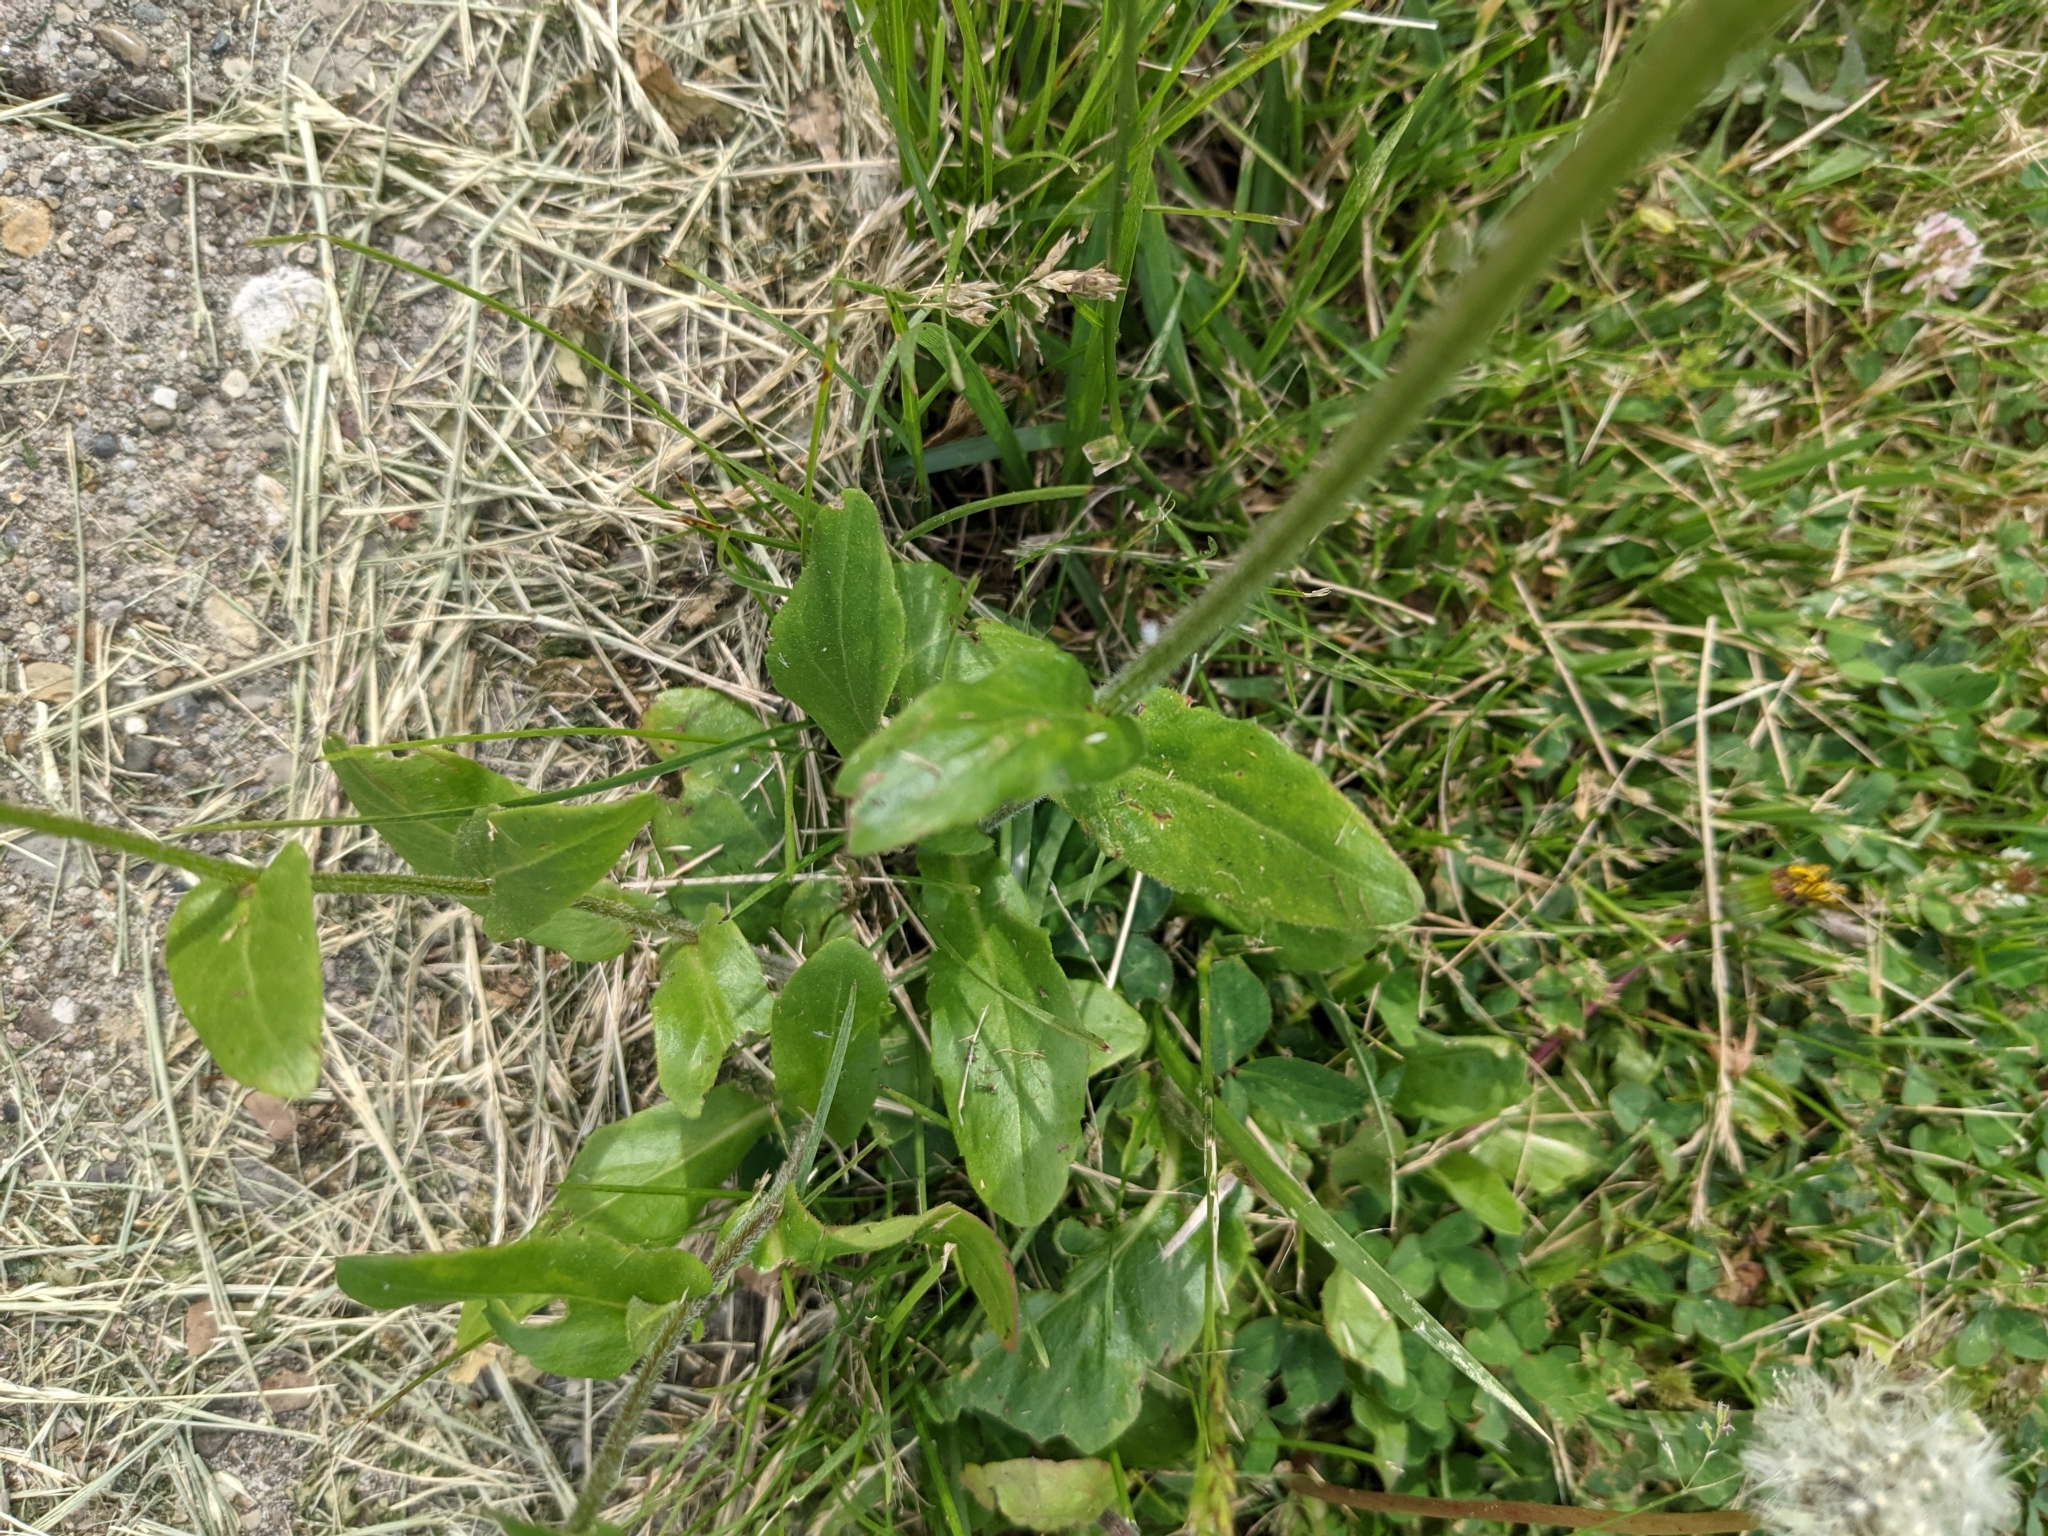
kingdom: Plantae
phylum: Tracheophyta
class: Magnoliopsida
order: Asterales
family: Asteraceae
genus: Erigeron
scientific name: Erigeron philadelphicus
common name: Robin's-plantain
